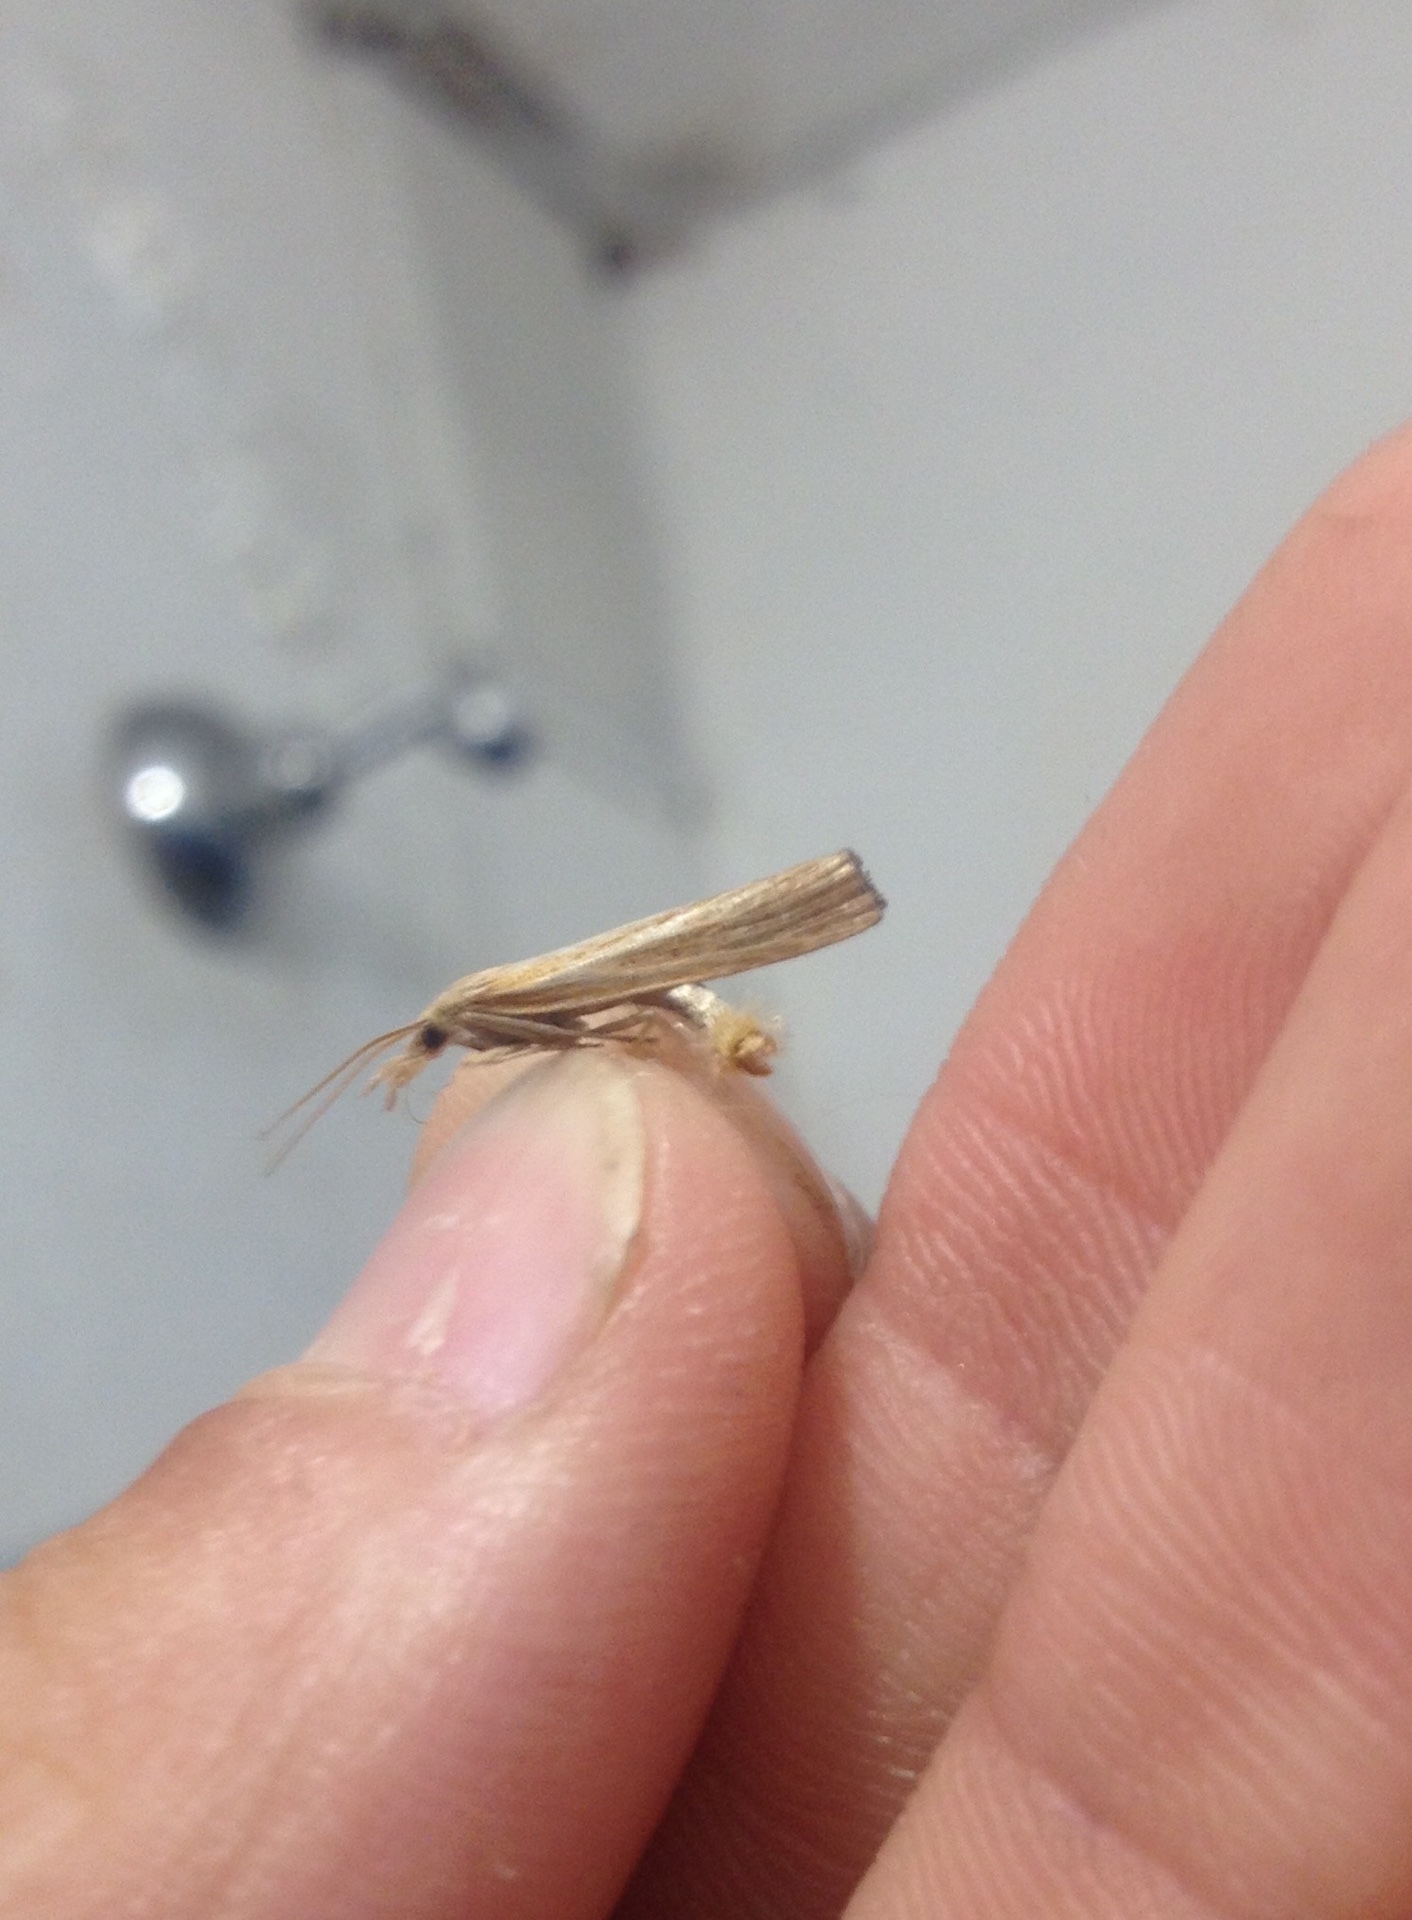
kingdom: Animalia
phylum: Arthropoda
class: Insecta
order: Lepidoptera
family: Crambidae
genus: Agriphila
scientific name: Agriphila tristellus
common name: Common grass-veneer
